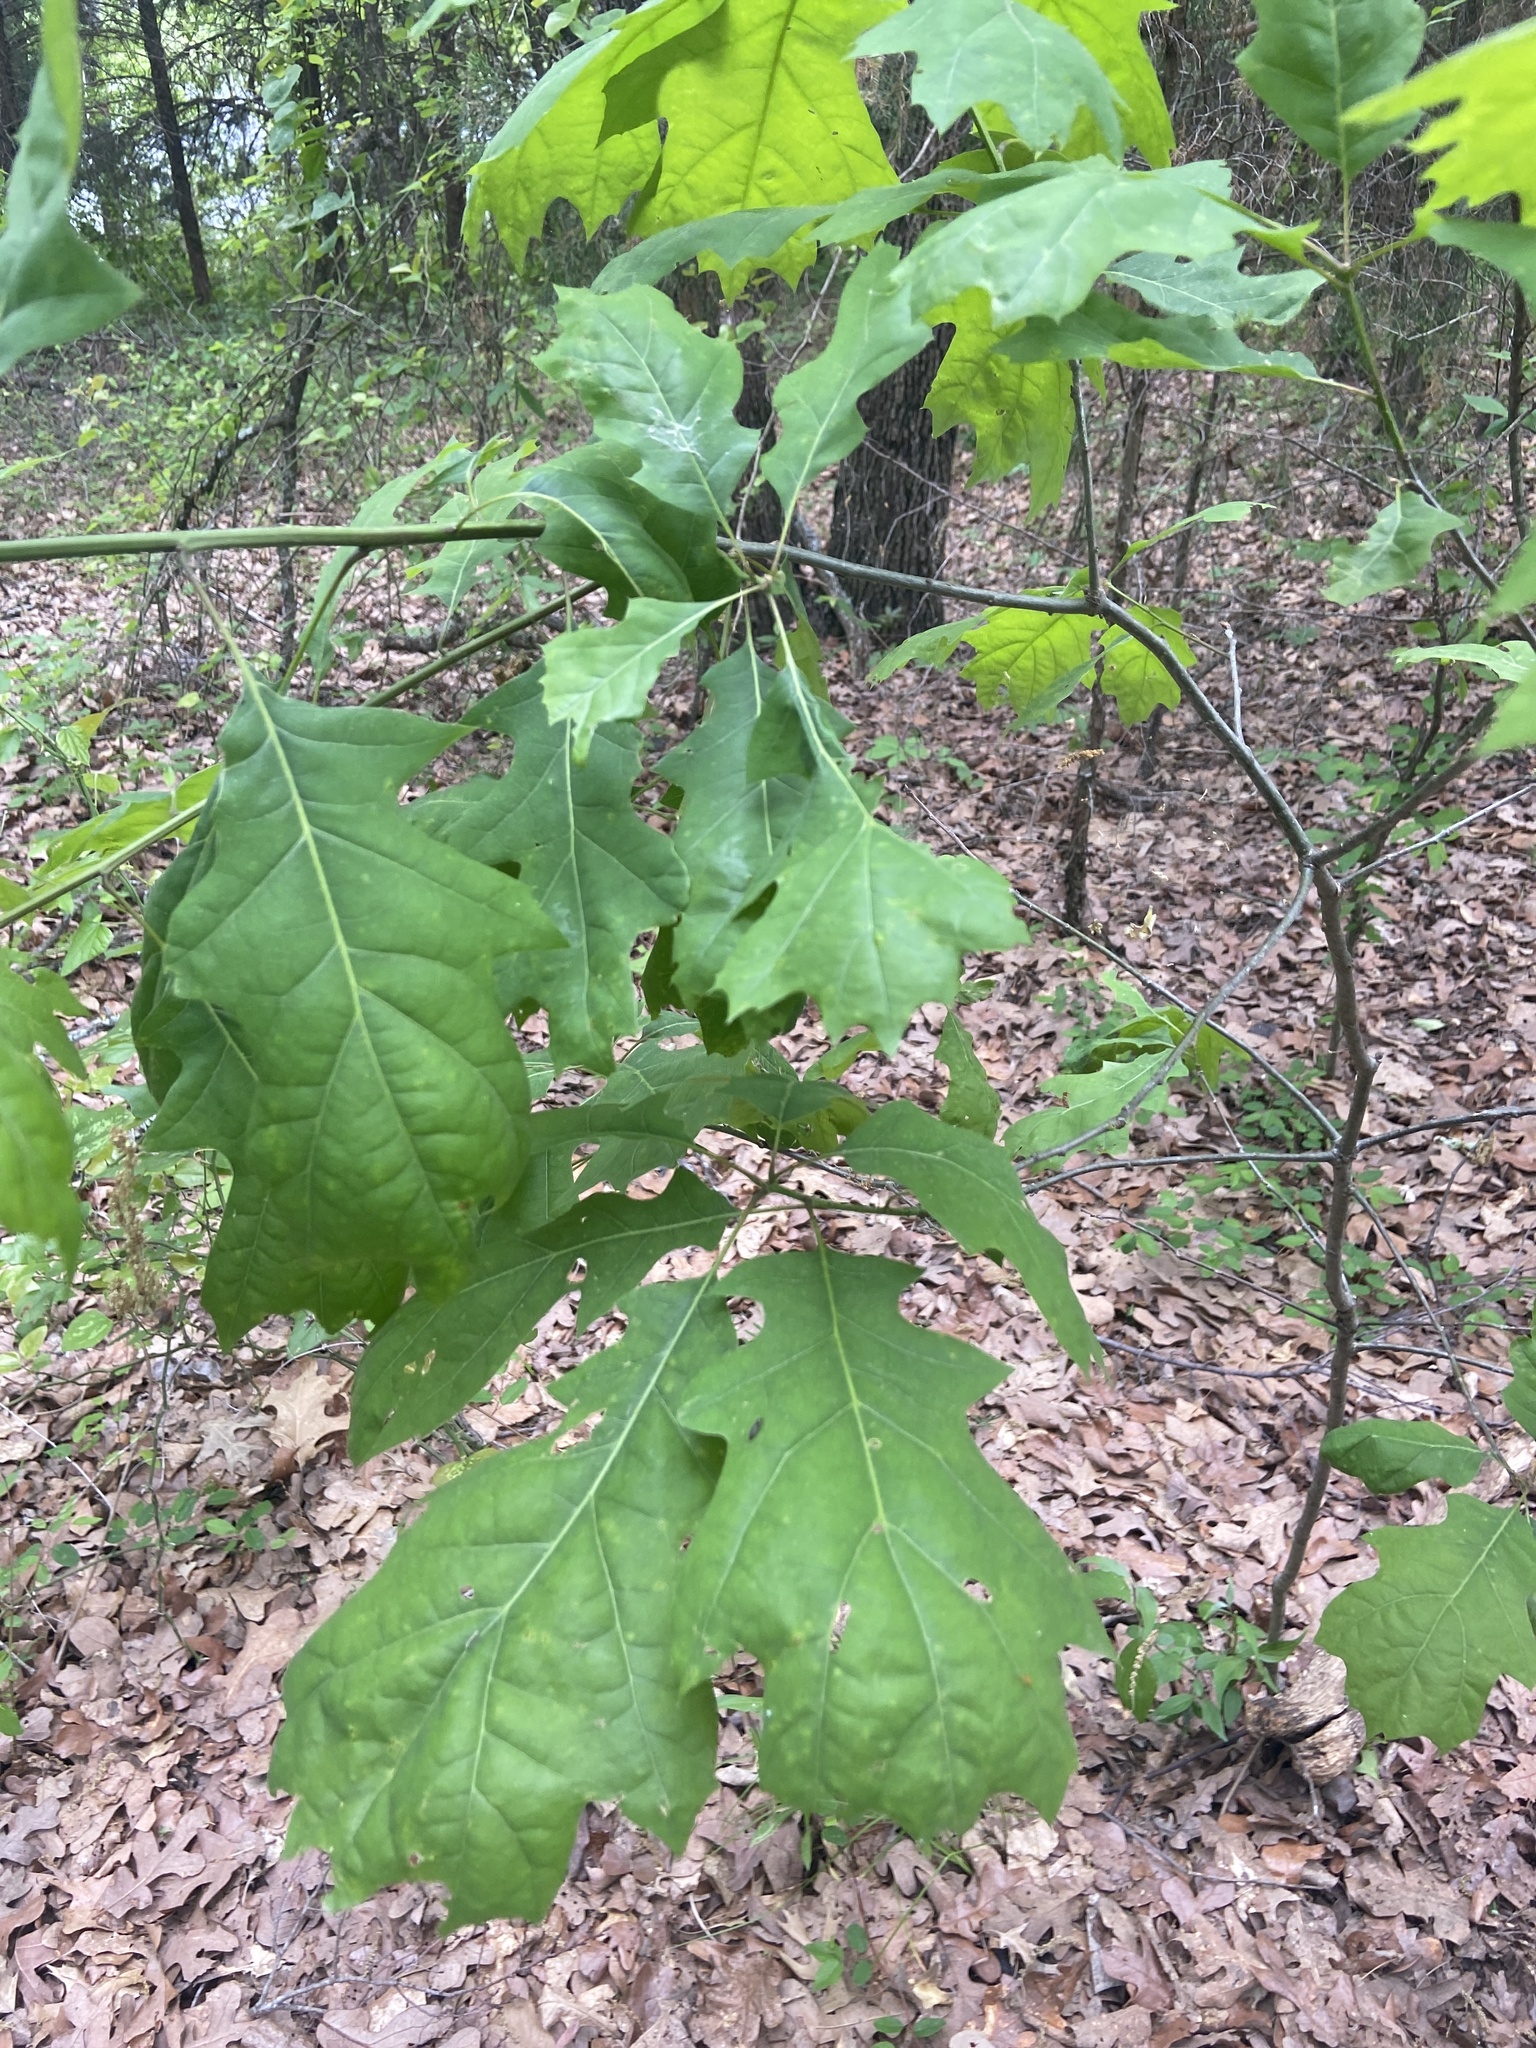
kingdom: Plantae
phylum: Tracheophyta
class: Magnoliopsida
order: Fagales
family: Fagaceae
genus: Quercus
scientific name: Quercus shumardii
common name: Shumard oak
